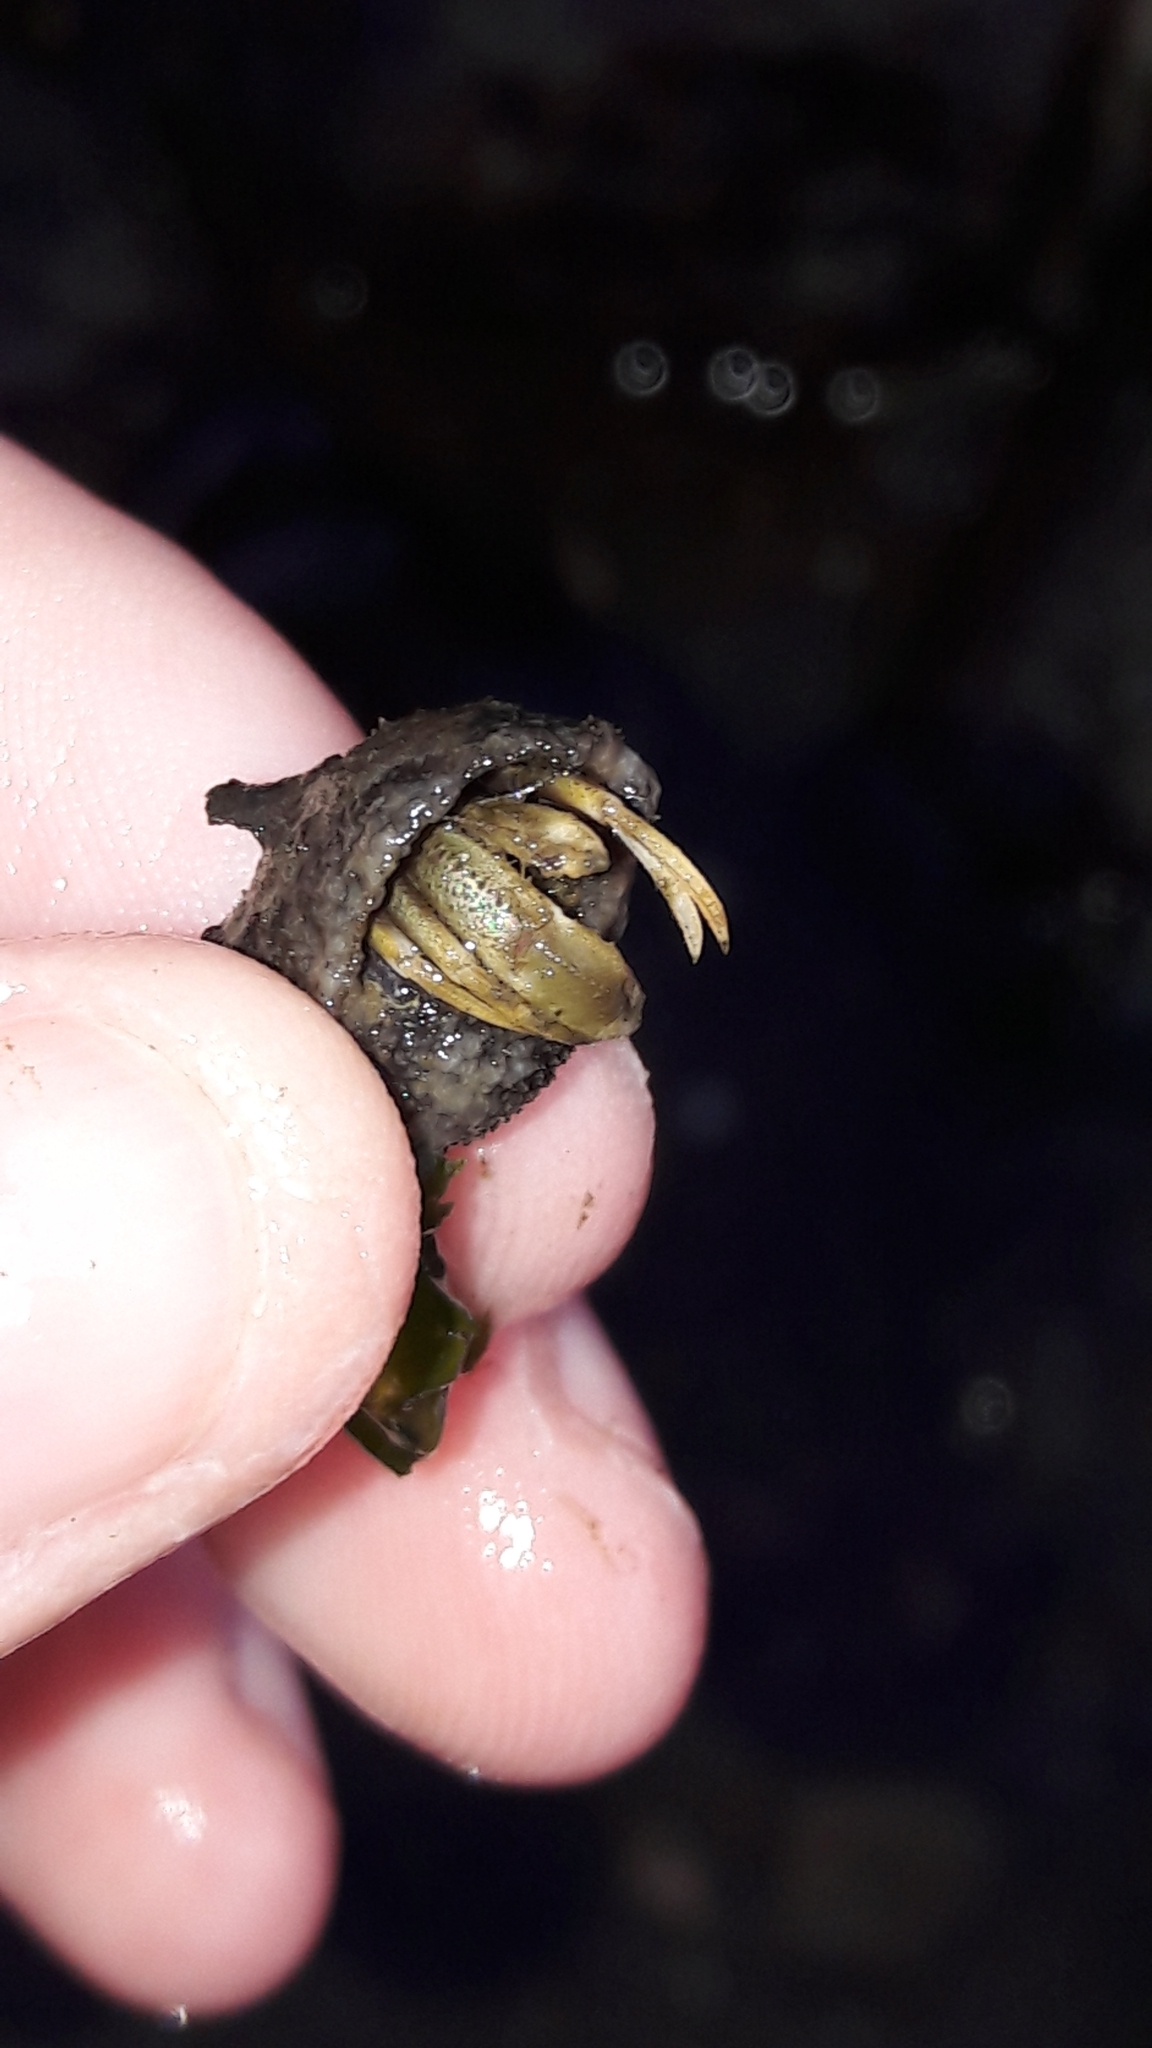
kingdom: Animalia
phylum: Arthropoda
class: Malacostraca
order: Decapoda
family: Paguridae
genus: Pagurus
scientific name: Pagurus longicarpus
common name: Long-armed hermit crab
